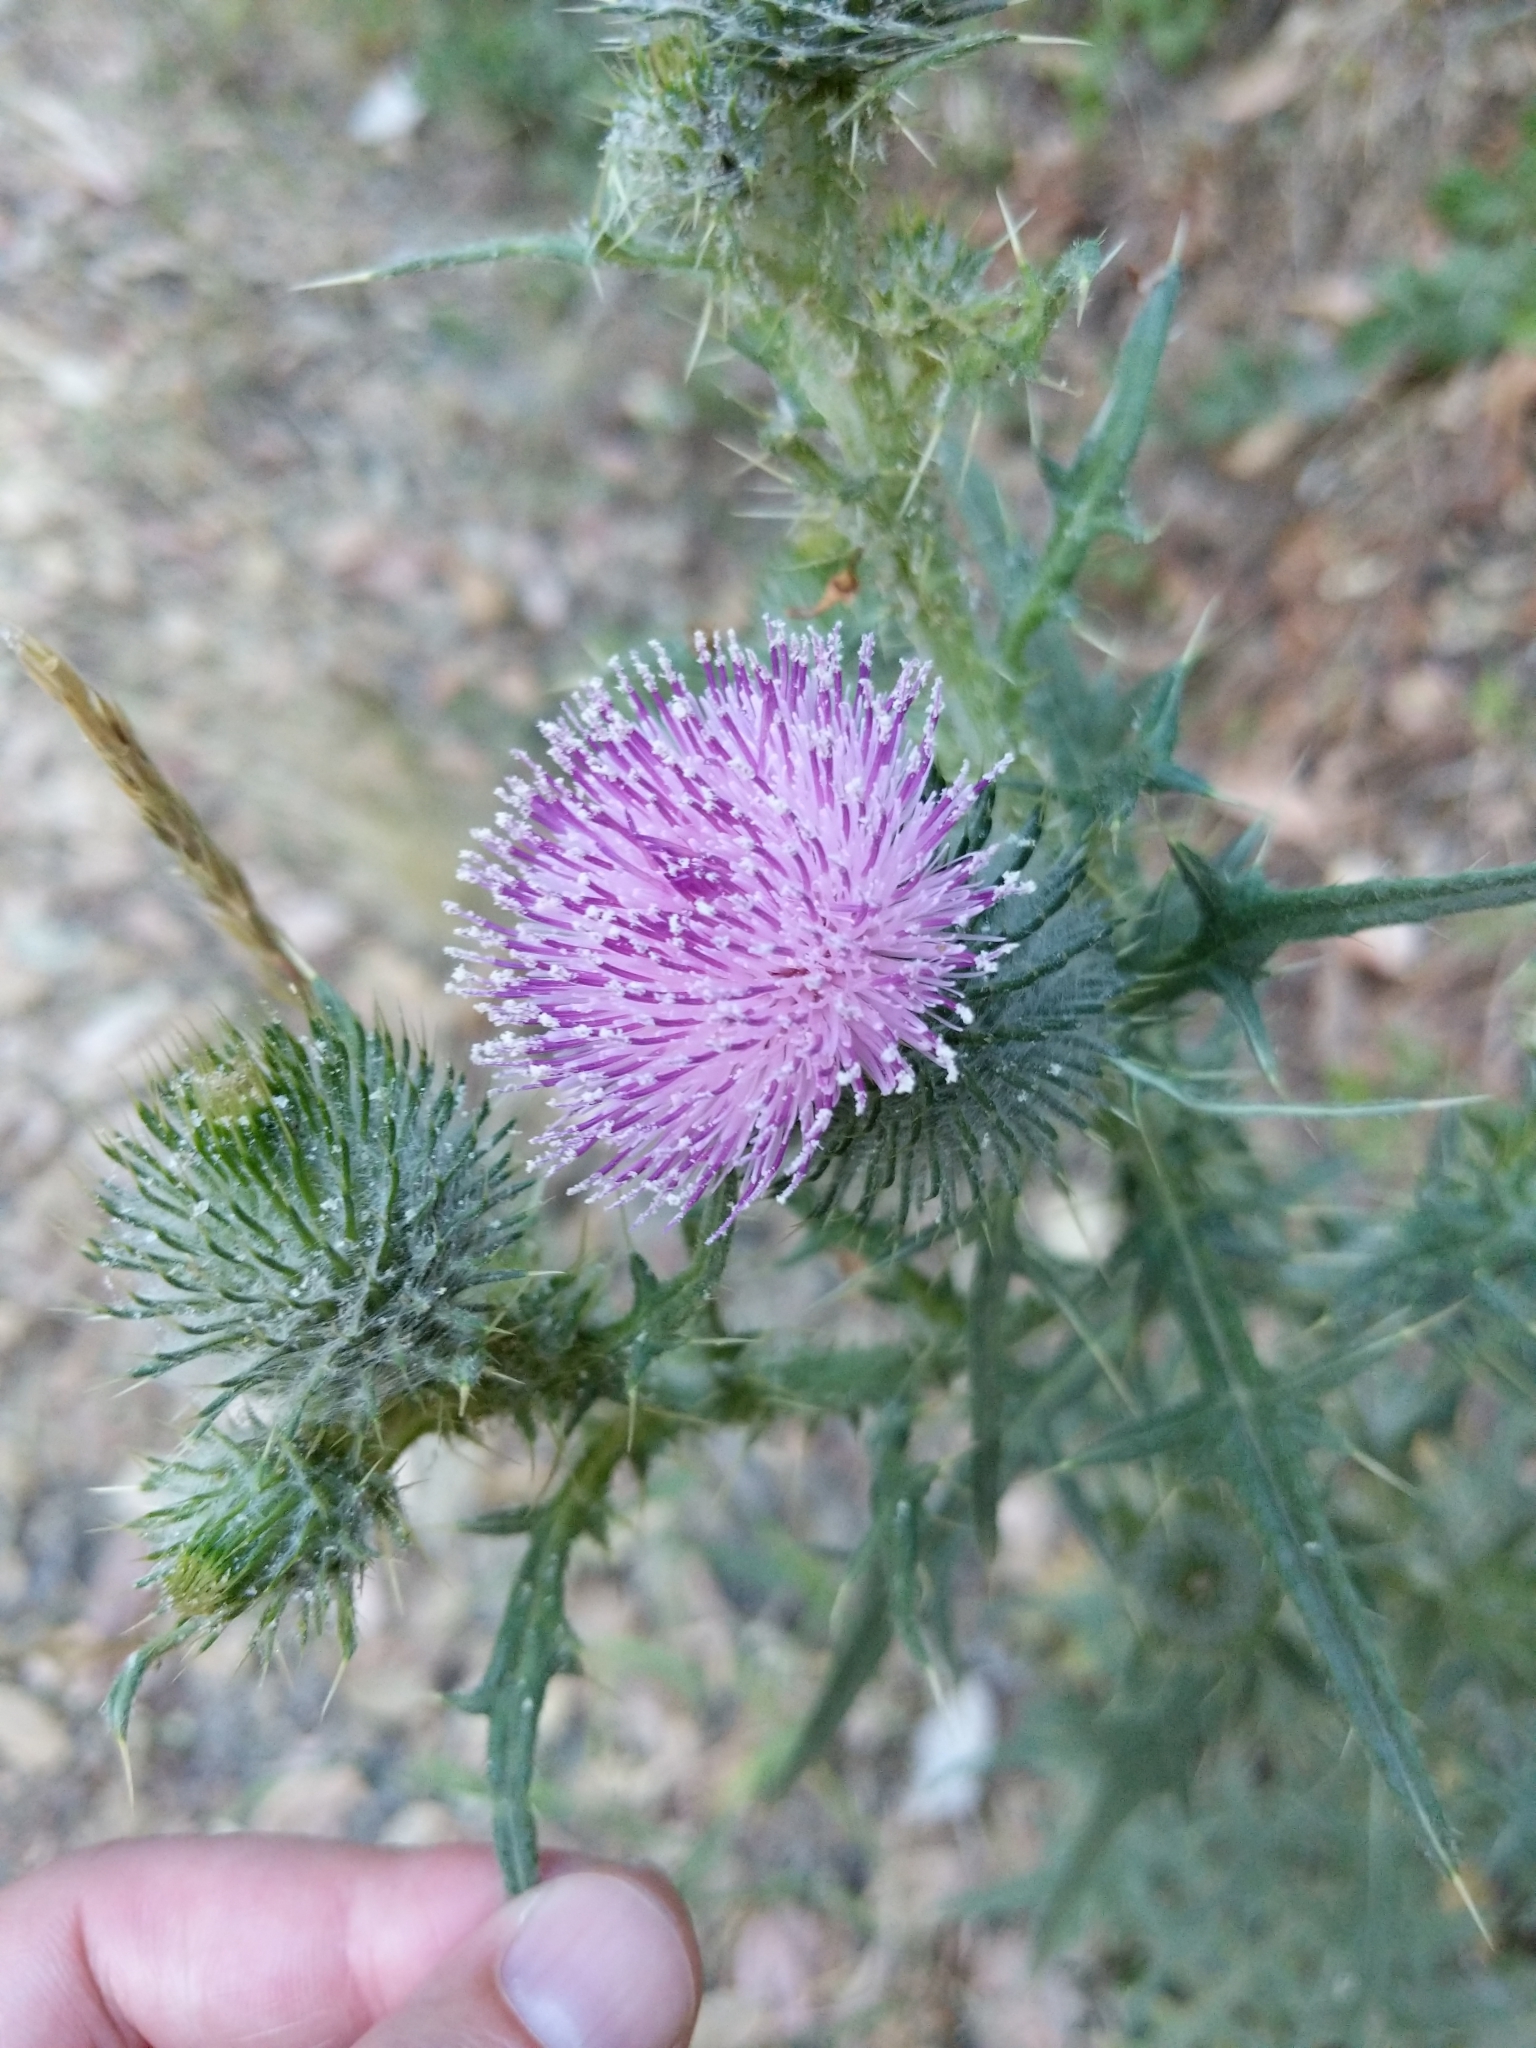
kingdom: Plantae
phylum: Tracheophyta
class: Magnoliopsida
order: Asterales
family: Asteraceae
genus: Cirsium
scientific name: Cirsium vulgare
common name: Bull thistle
